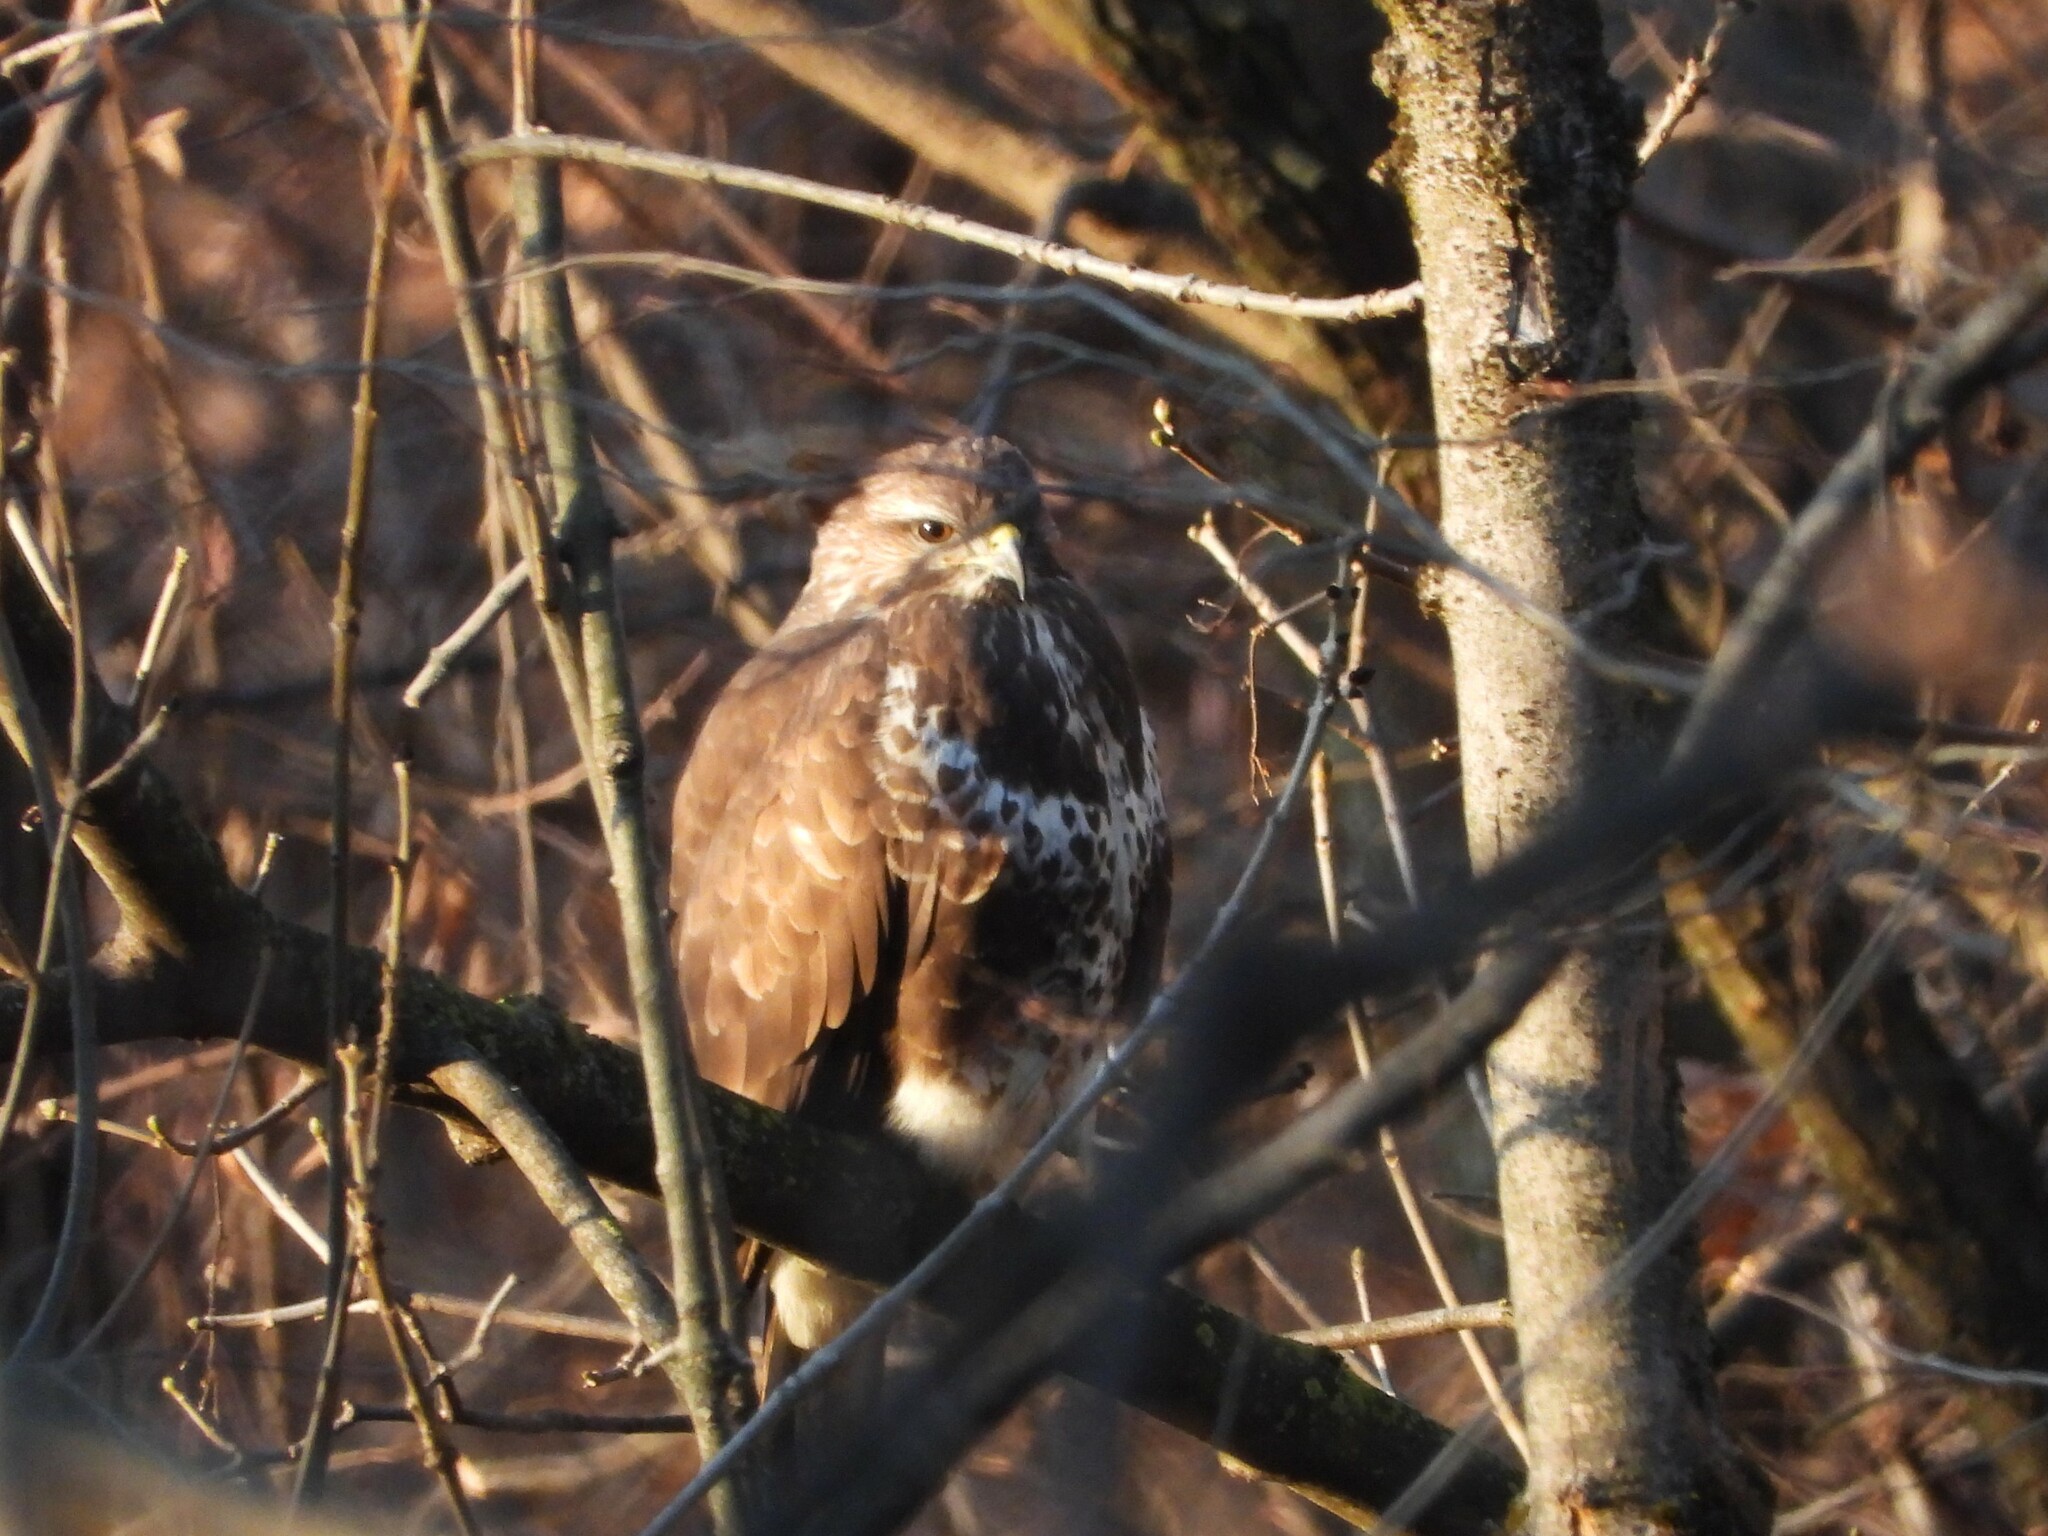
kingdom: Animalia
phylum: Chordata
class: Aves
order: Accipitriformes
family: Accipitridae
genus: Buteo
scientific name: Buteo buteo
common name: Common buzzard
